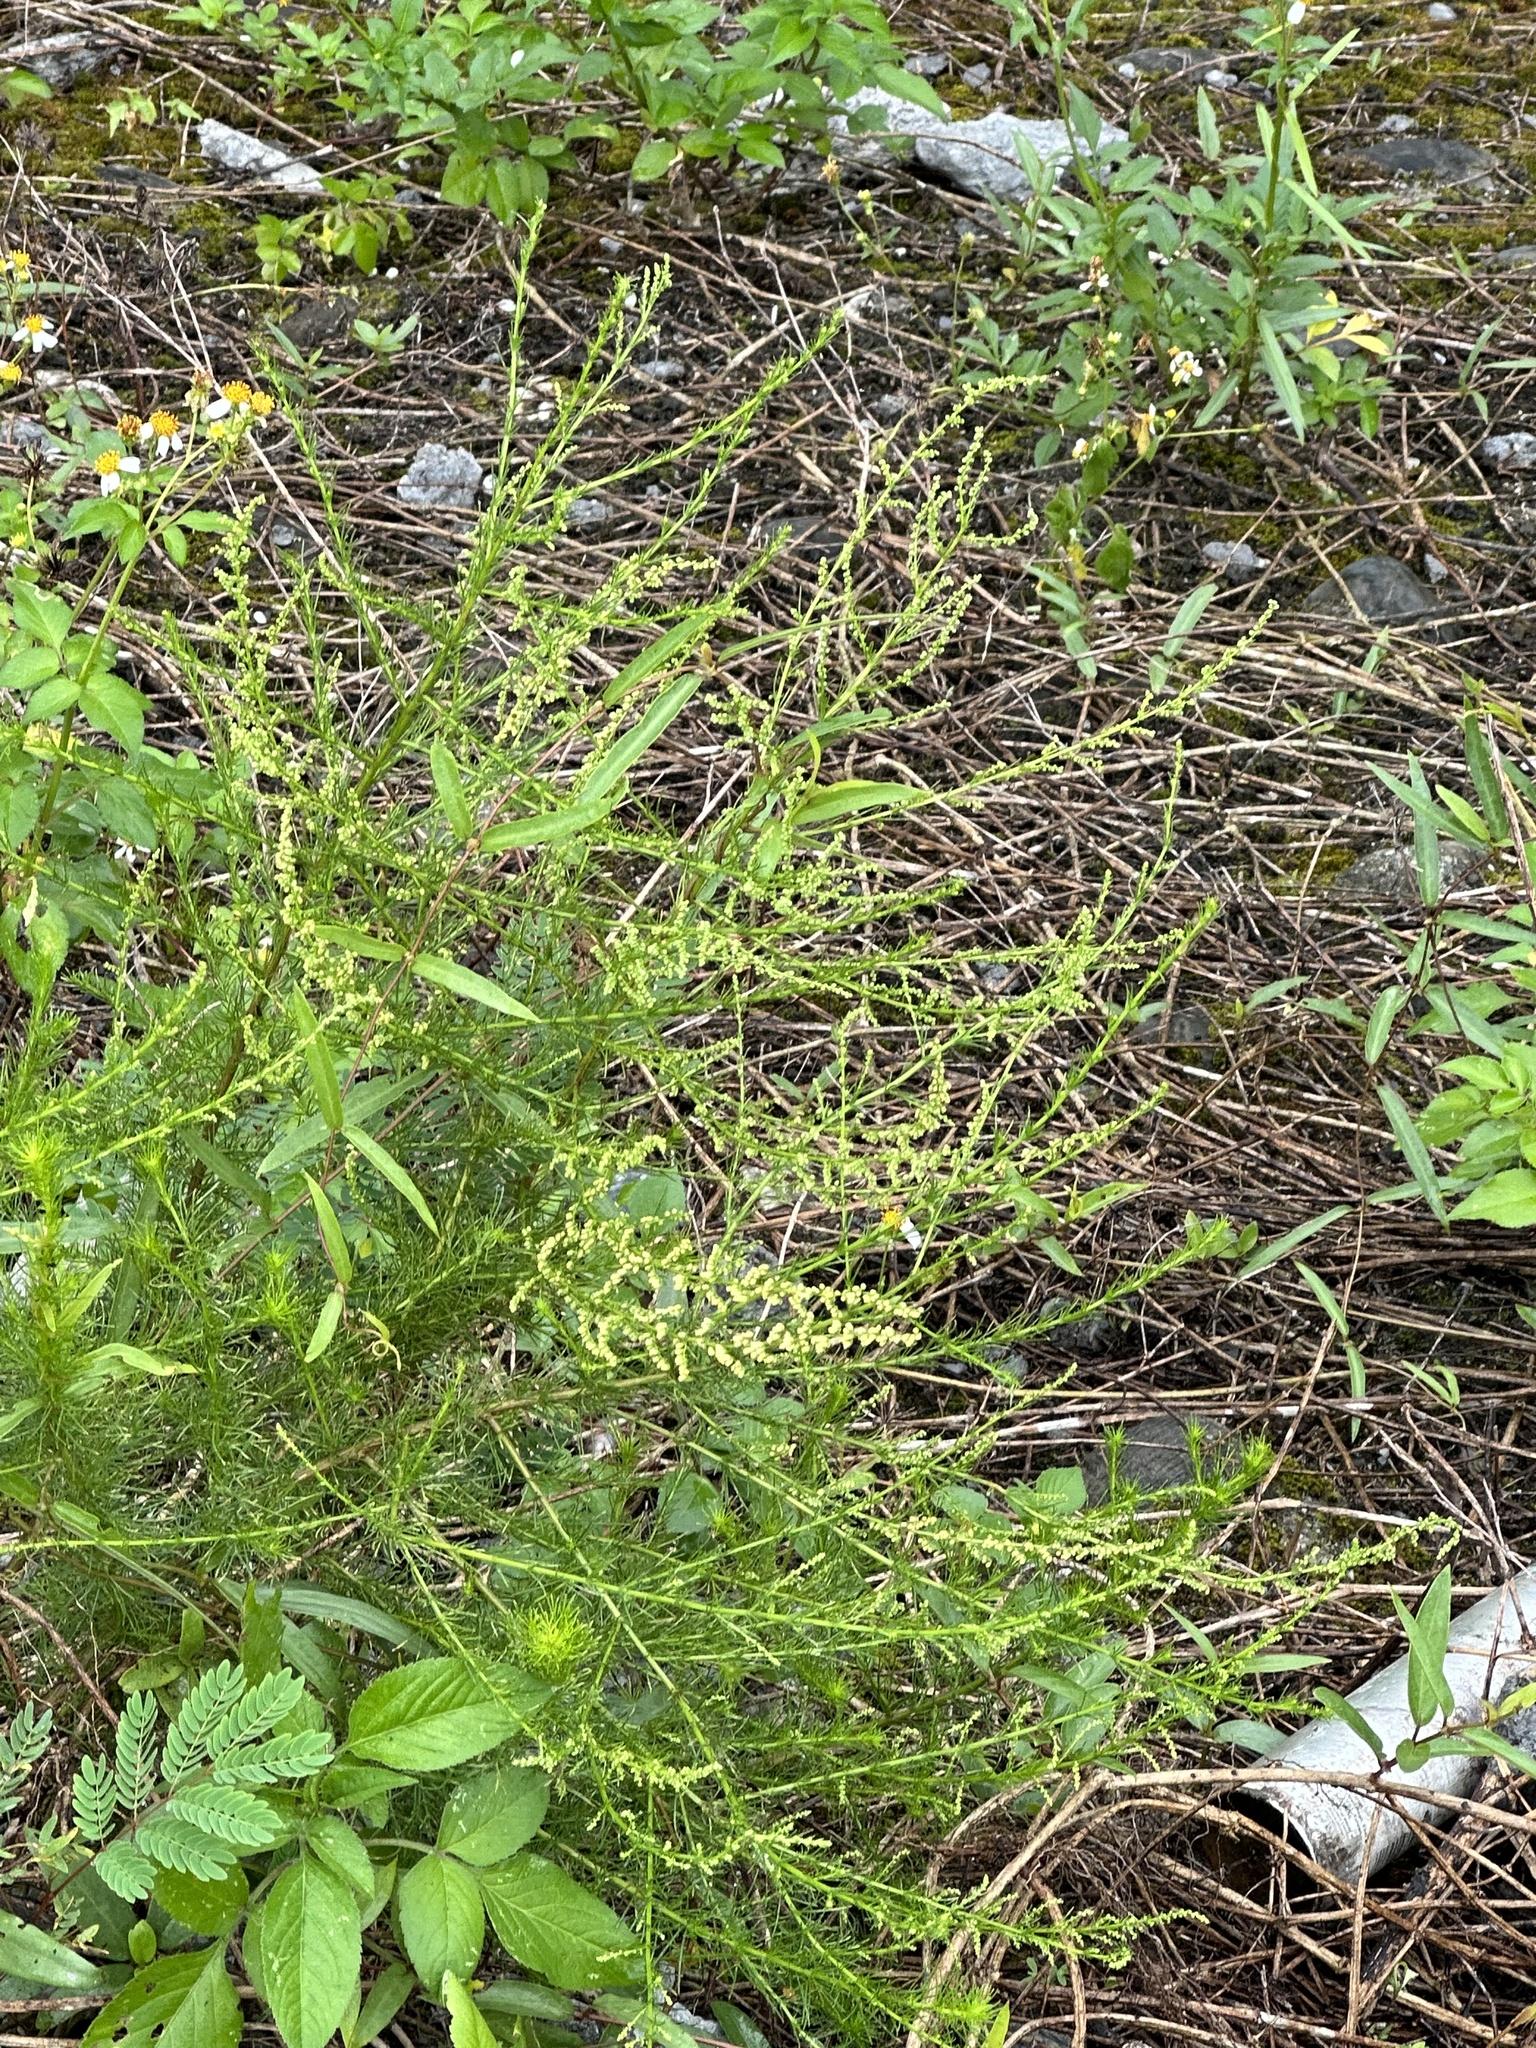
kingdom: Plantae
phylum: Tracheophyta
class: Magnoliopsida
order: Asterales
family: Asteraceae
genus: Artemisia
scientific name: Artemisia capillaris
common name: Yin-chen wormwood
